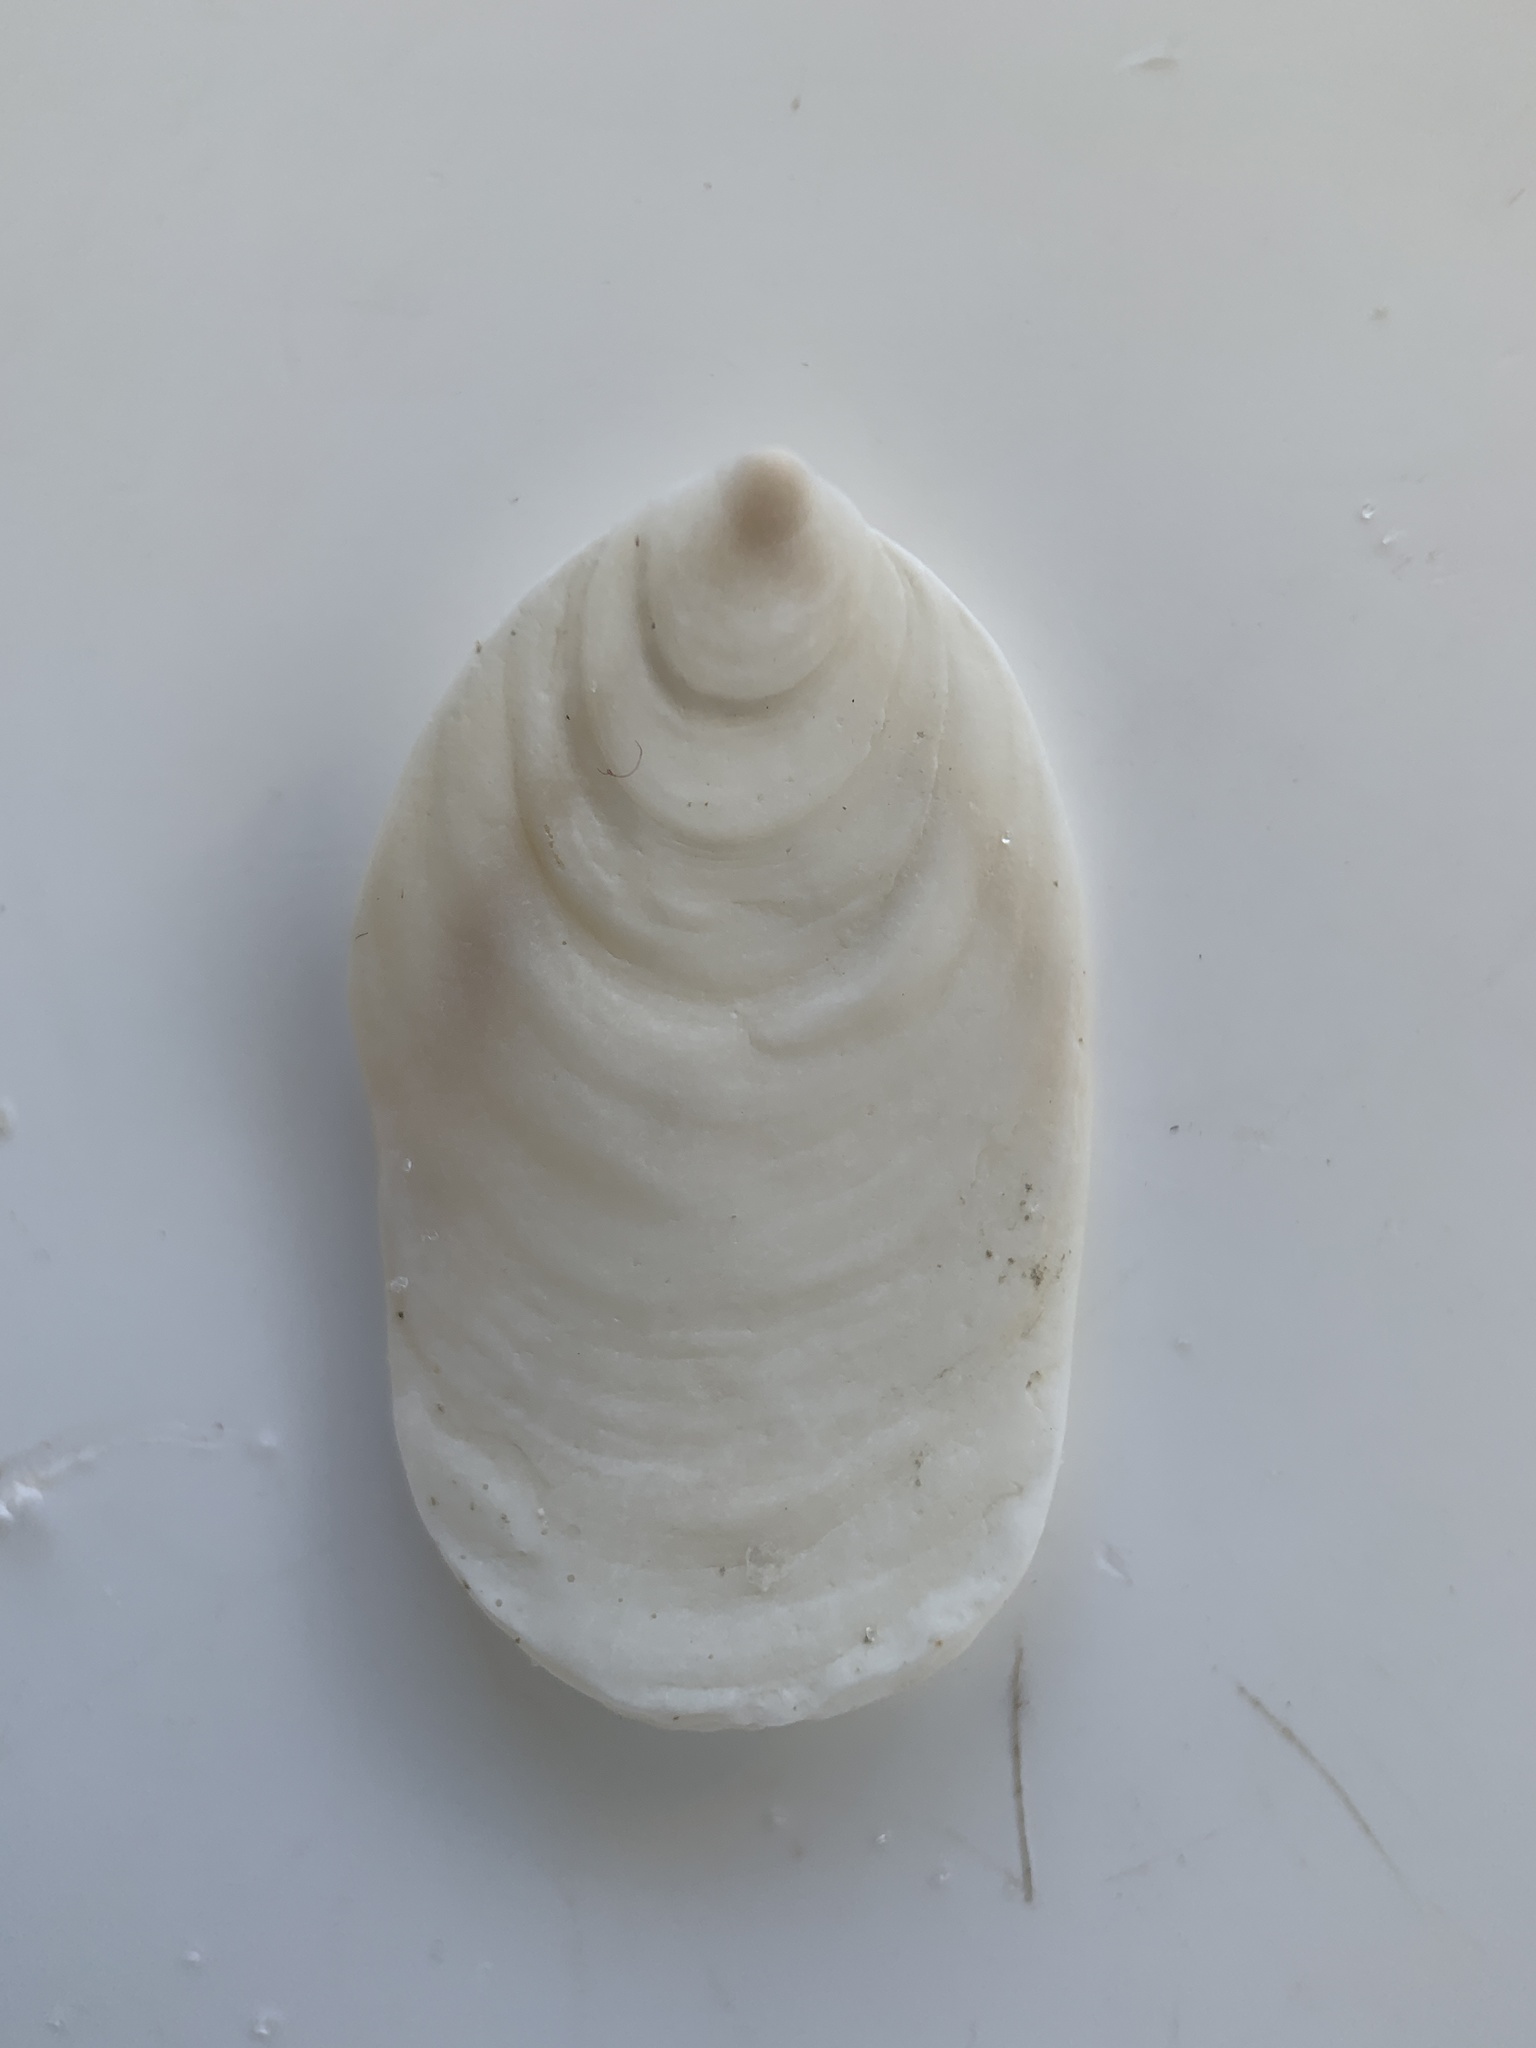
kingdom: Animalia
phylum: Mollusca
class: Gastropoda
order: Littorinimorpha
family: Calyptraeidae
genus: Crepidula
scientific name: Crepidula
